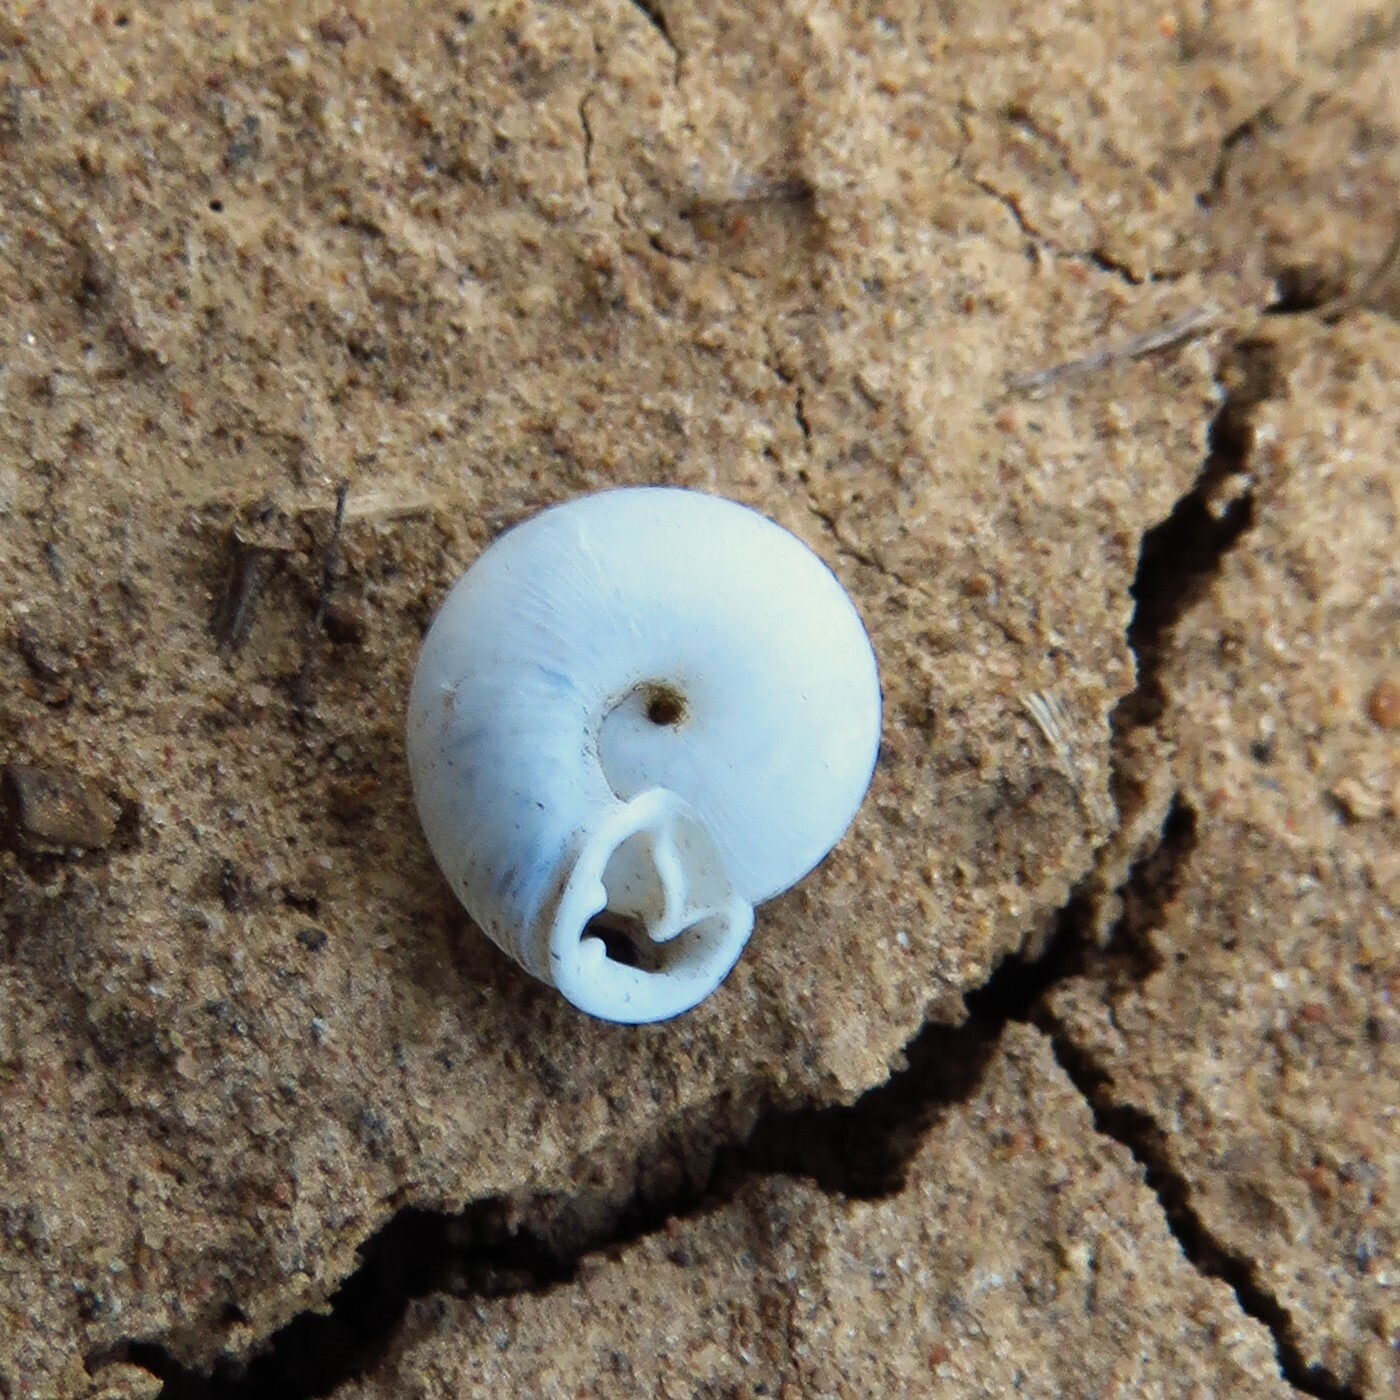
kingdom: Animalia
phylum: Mollusca
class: Gastropoda
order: Stylommatophora
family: Polygyridae
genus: Linisa
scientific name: Linisa texasiana
